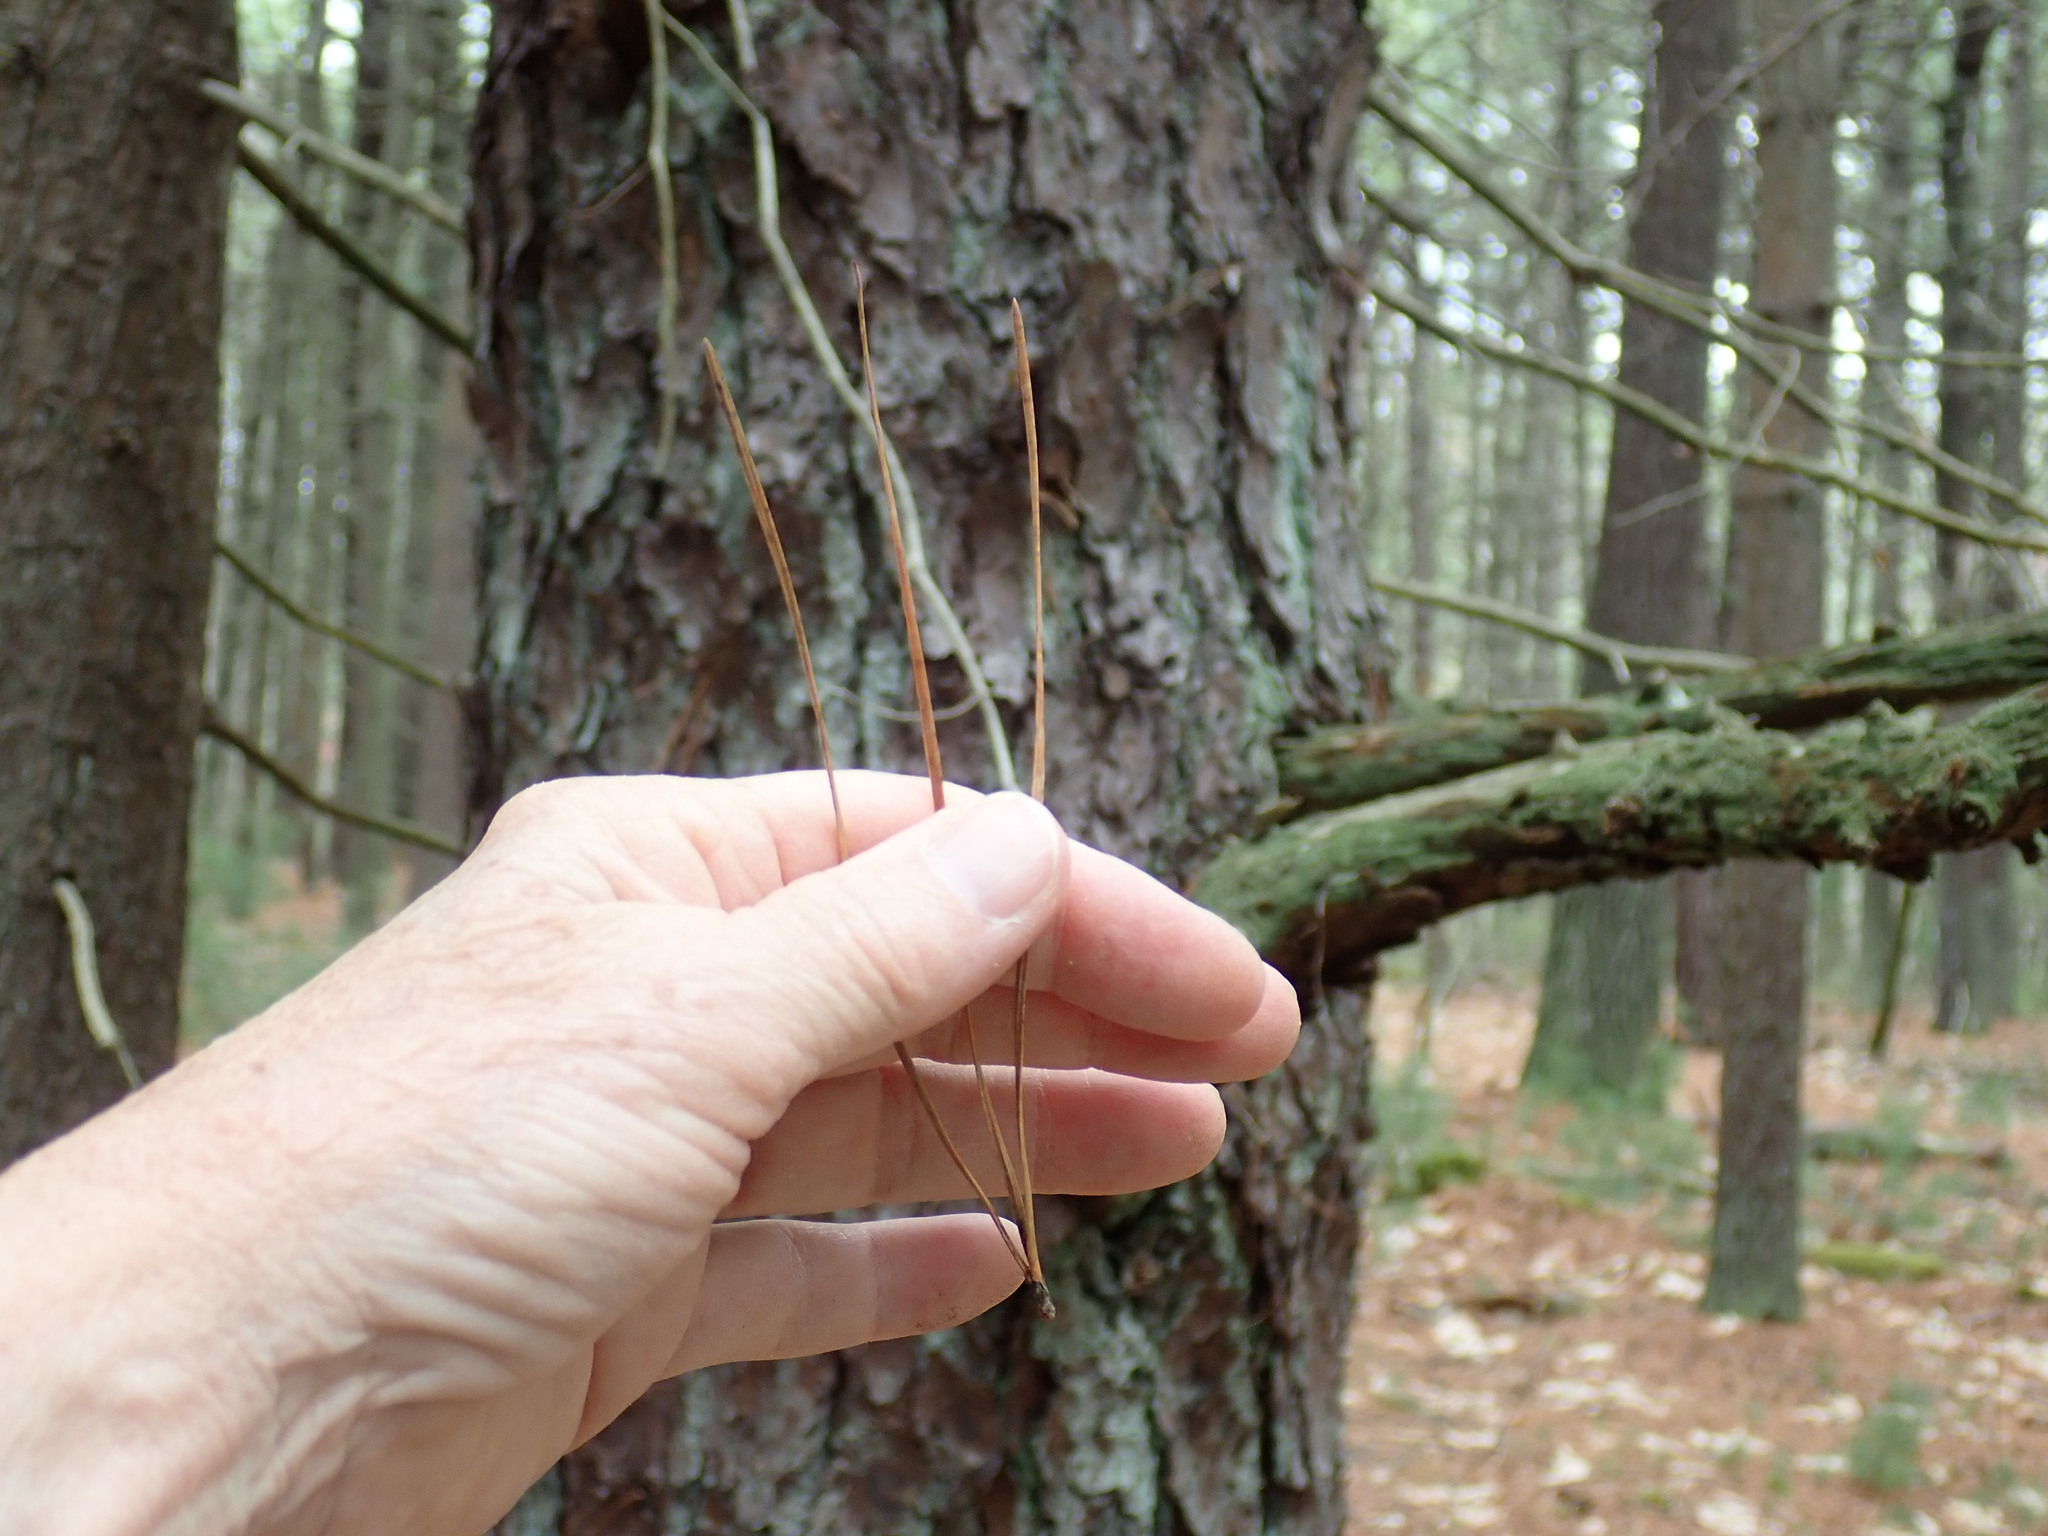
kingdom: Plantae
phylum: Tracheophyta
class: Pinopsida
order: Pinales
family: Pinaceae
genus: Pinus
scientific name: Pinus rigida
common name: Pitch pine
